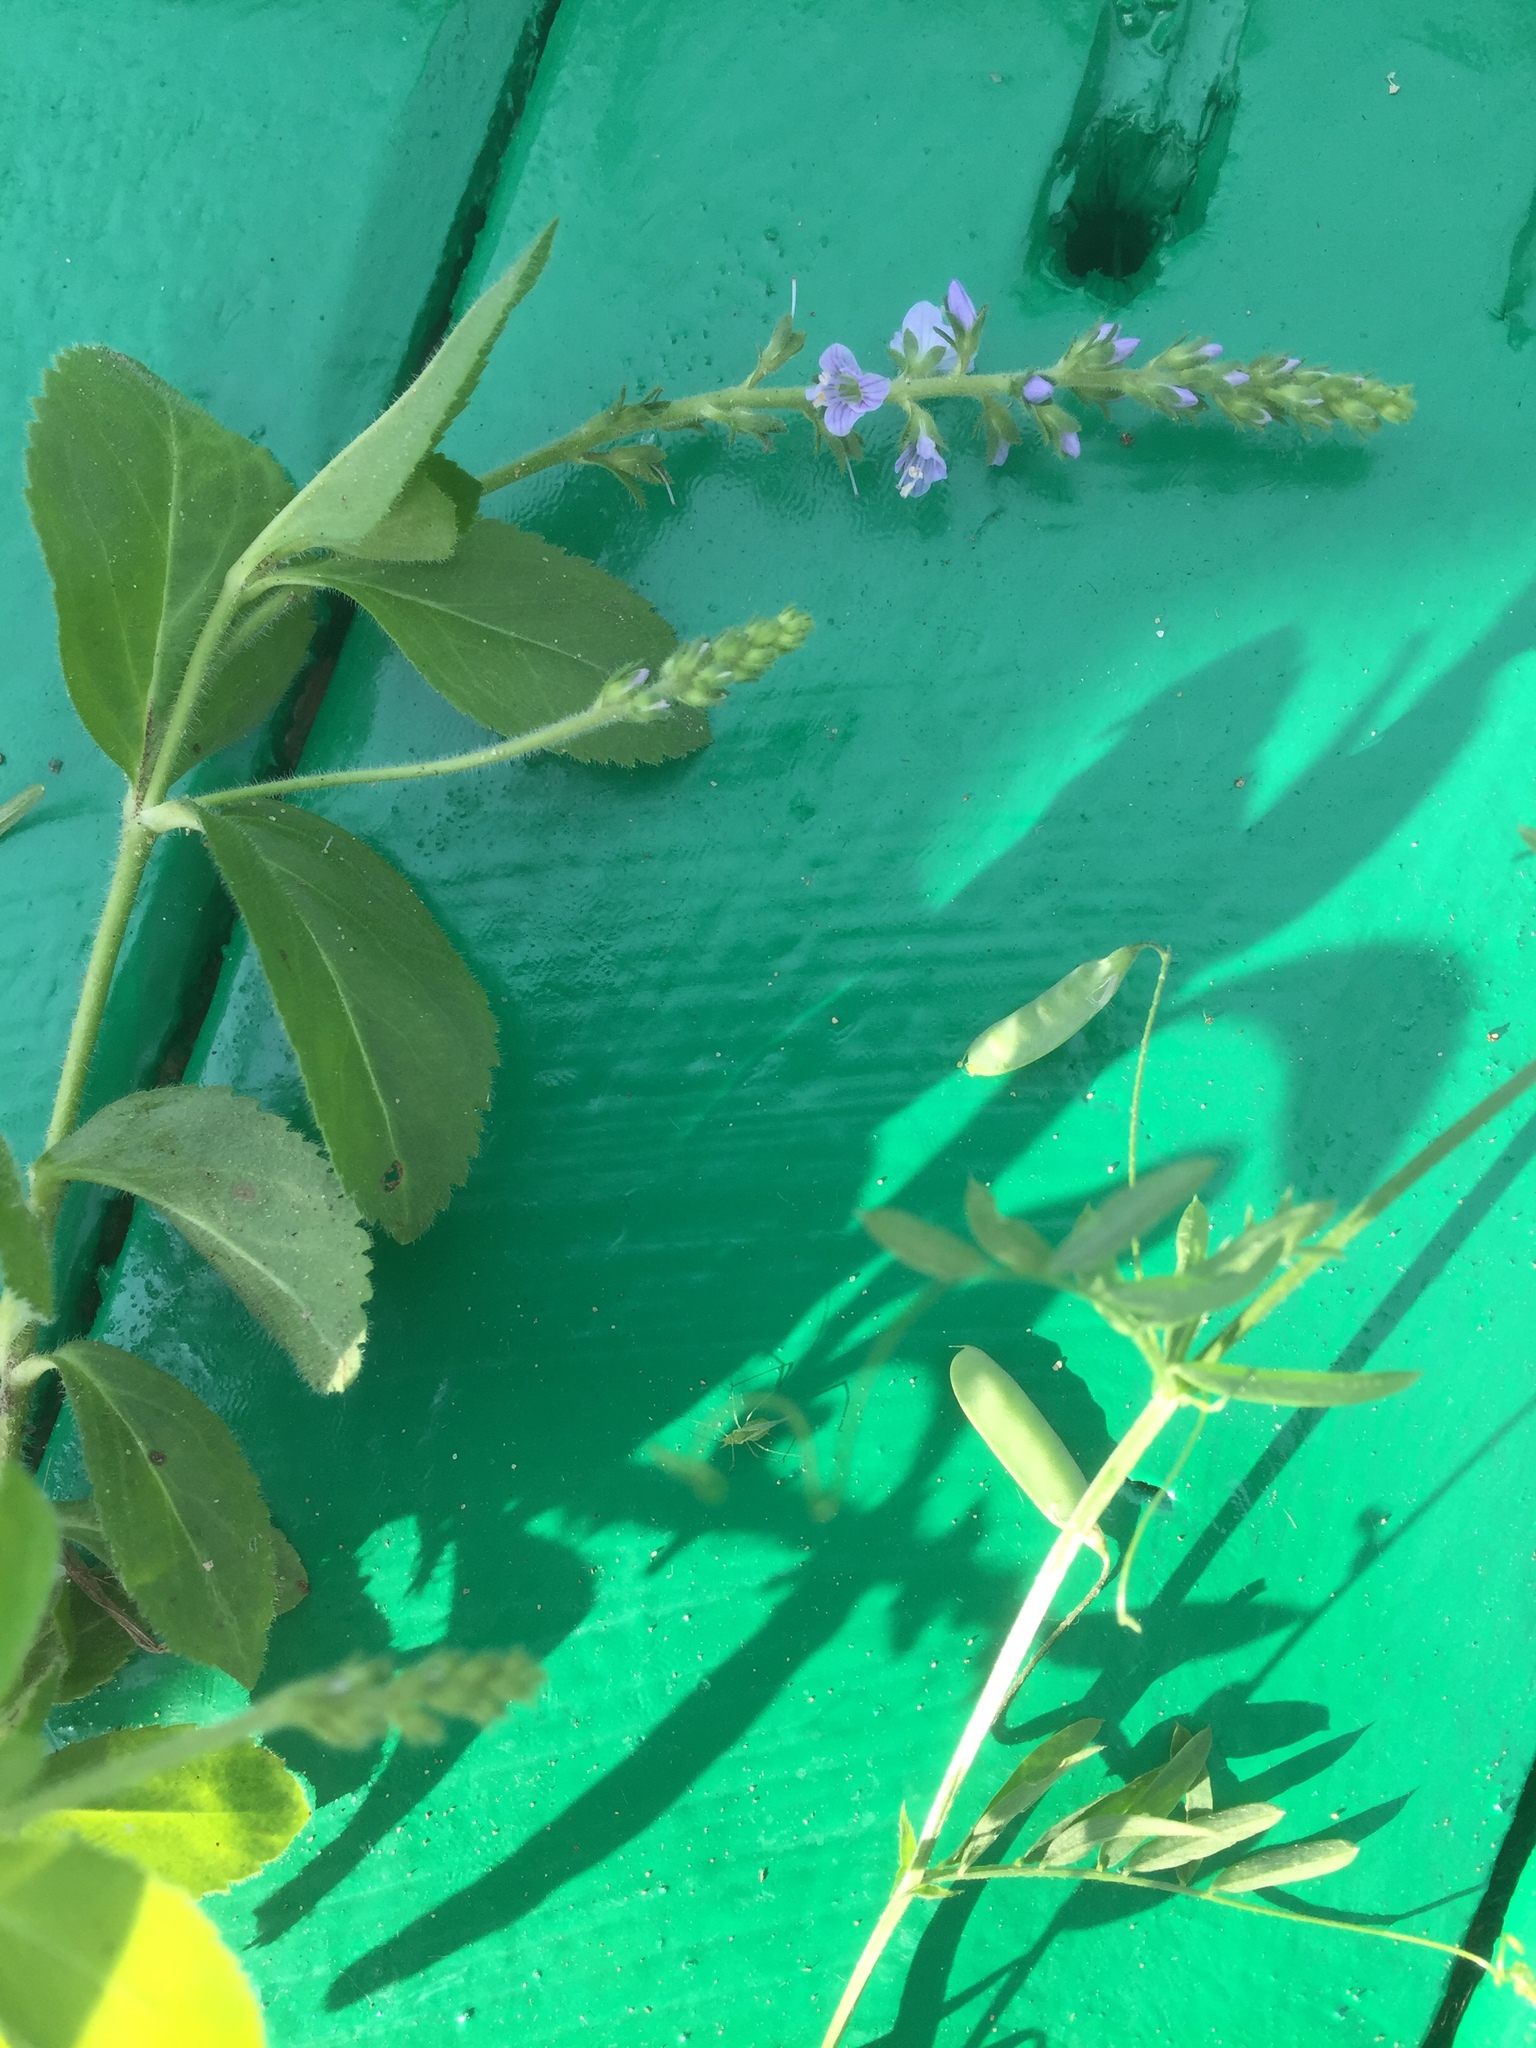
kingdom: Plantae
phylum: Tracheophyta
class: Magnoliopsida
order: Lamiales
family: Plantaginaceae
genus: Veronica
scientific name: Veronica officinalis
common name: Common speedwell
